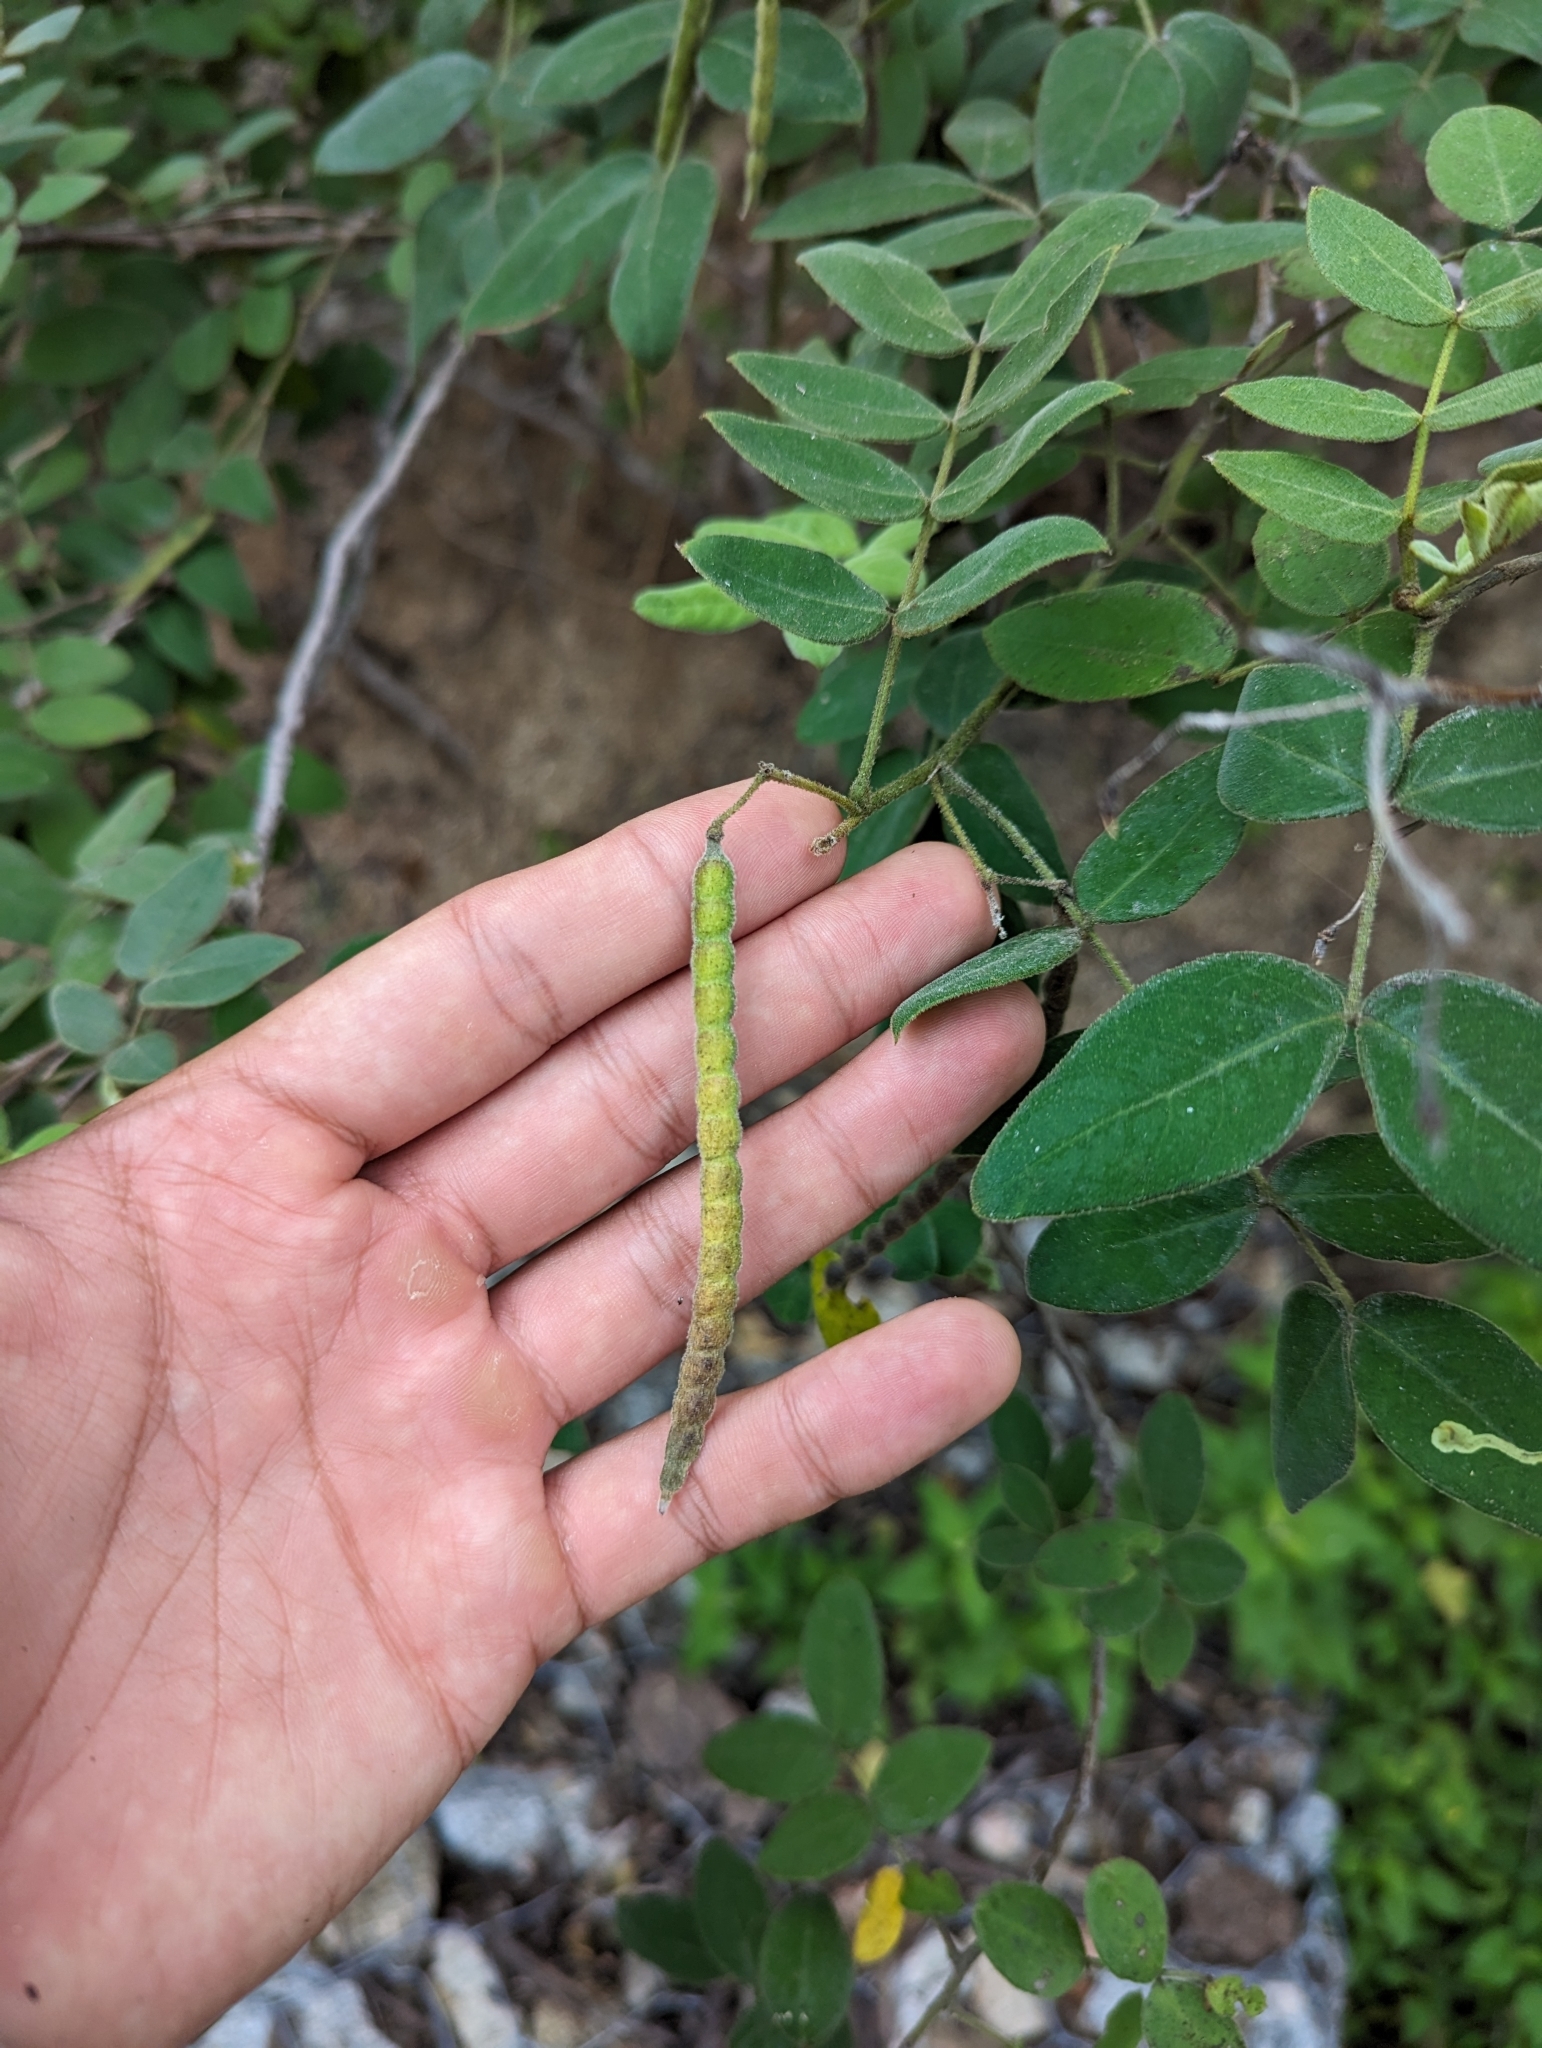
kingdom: Plantae
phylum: Tracheophyta
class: Magnoliopsida
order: Fabales
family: Fabaceae
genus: Senna
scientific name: Senna villosa
